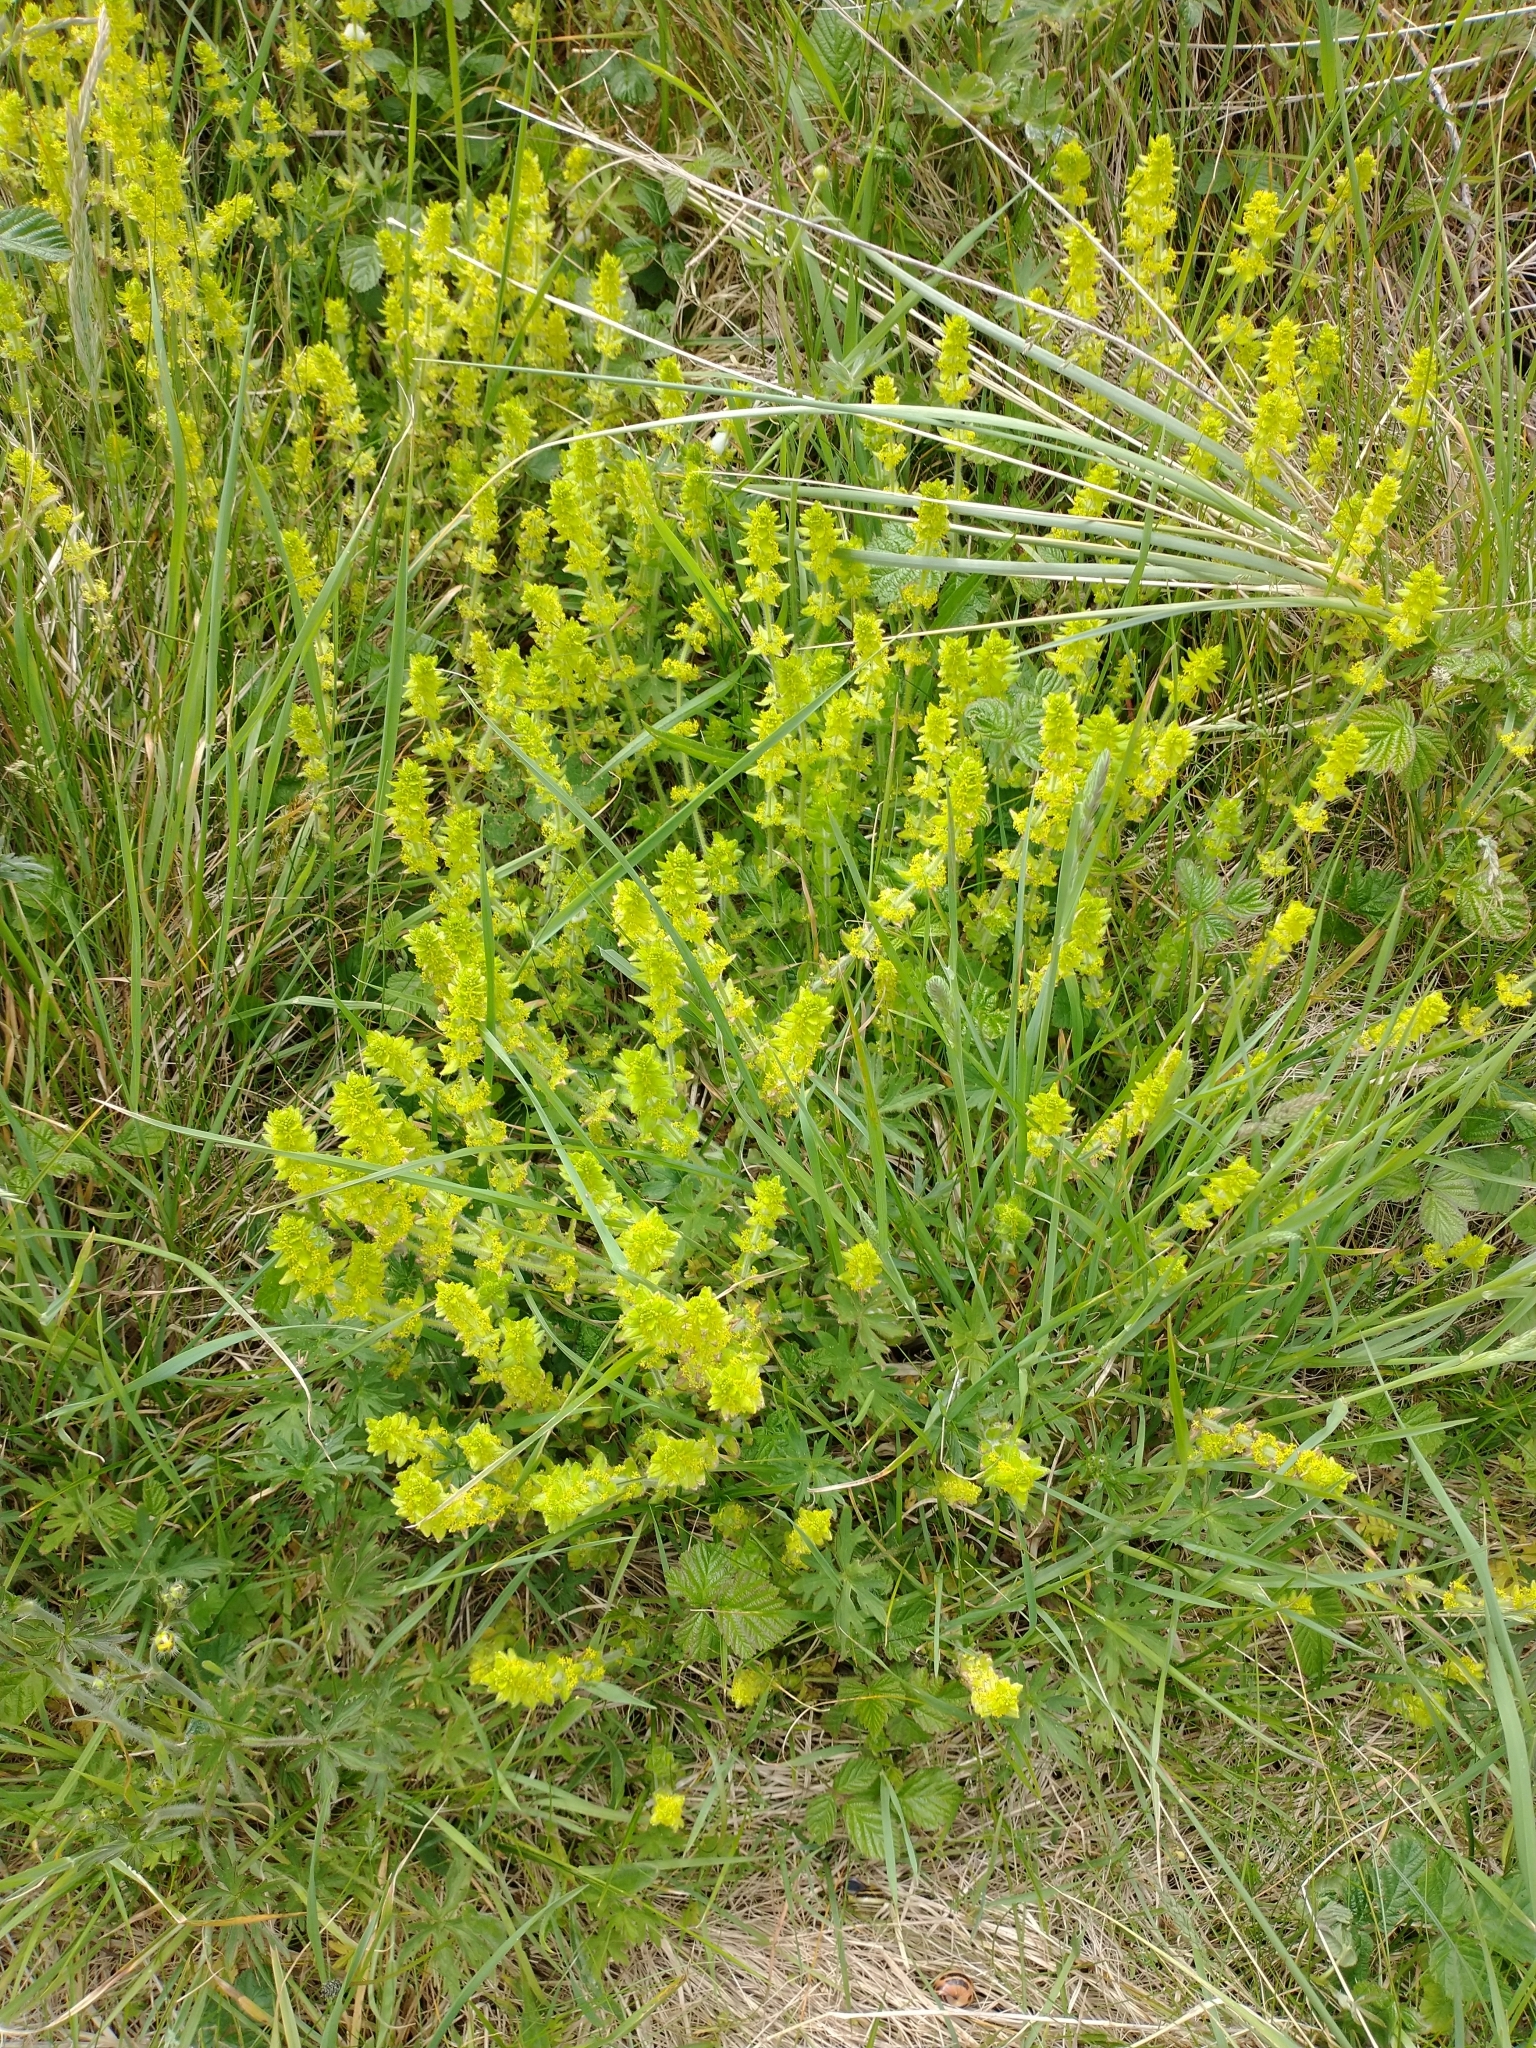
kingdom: Plantae
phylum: Tracheophyta
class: Magnoliopsida
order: Gentianales
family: Rubiaceae
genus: Cruciata
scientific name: Cruciata laevipes
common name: Crosswort
